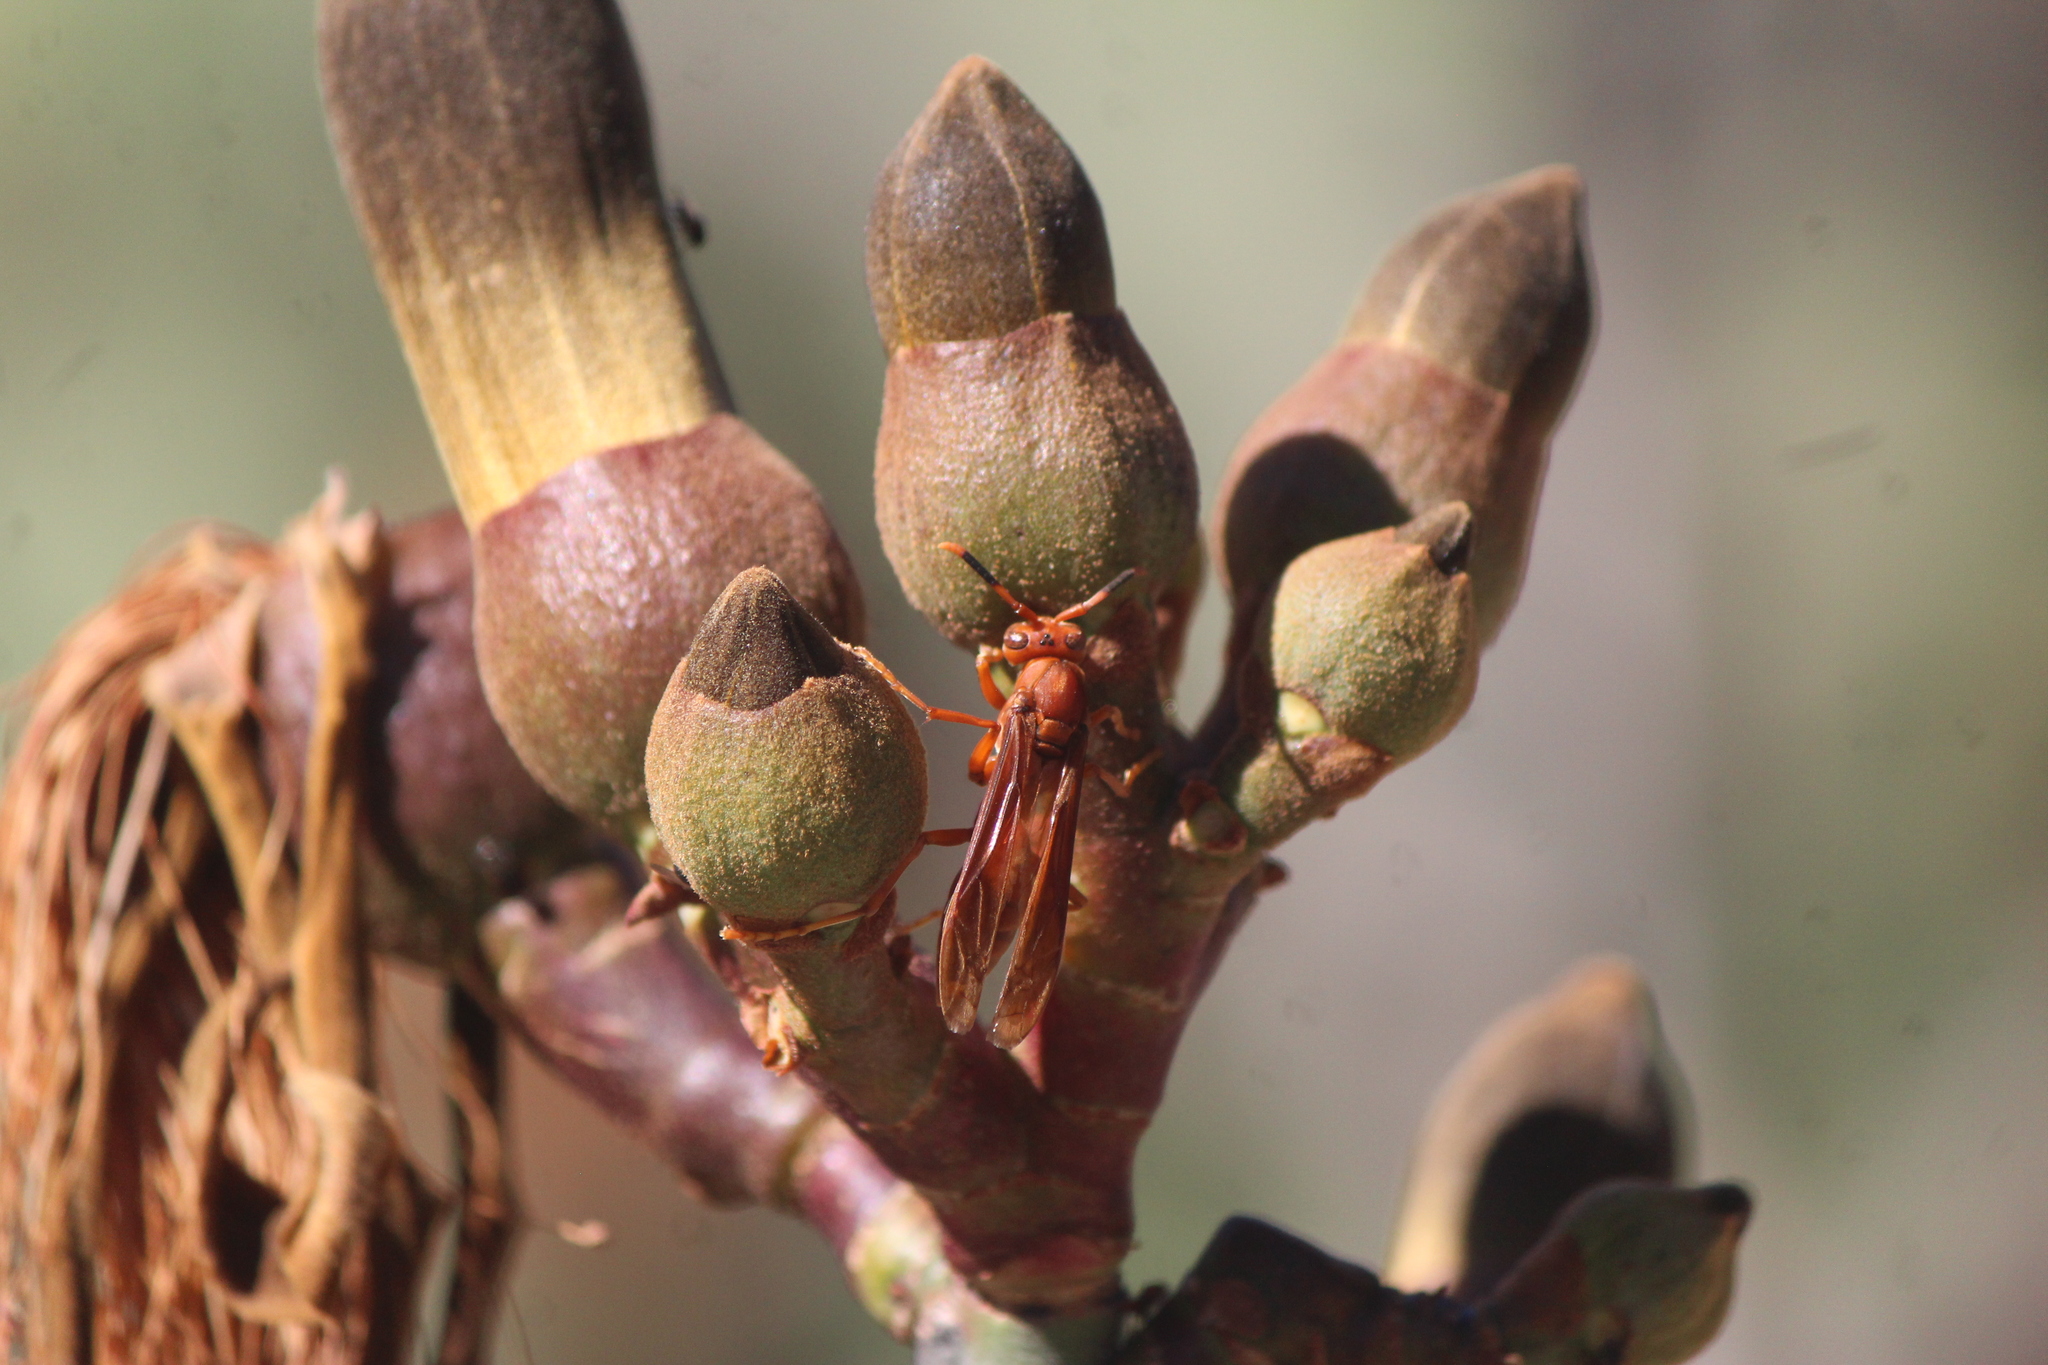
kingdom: Animalia
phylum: Arthropoda
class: Insecta
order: Hymenoptera
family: Eumenidae
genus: Polistes
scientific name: Polistes canadensis
